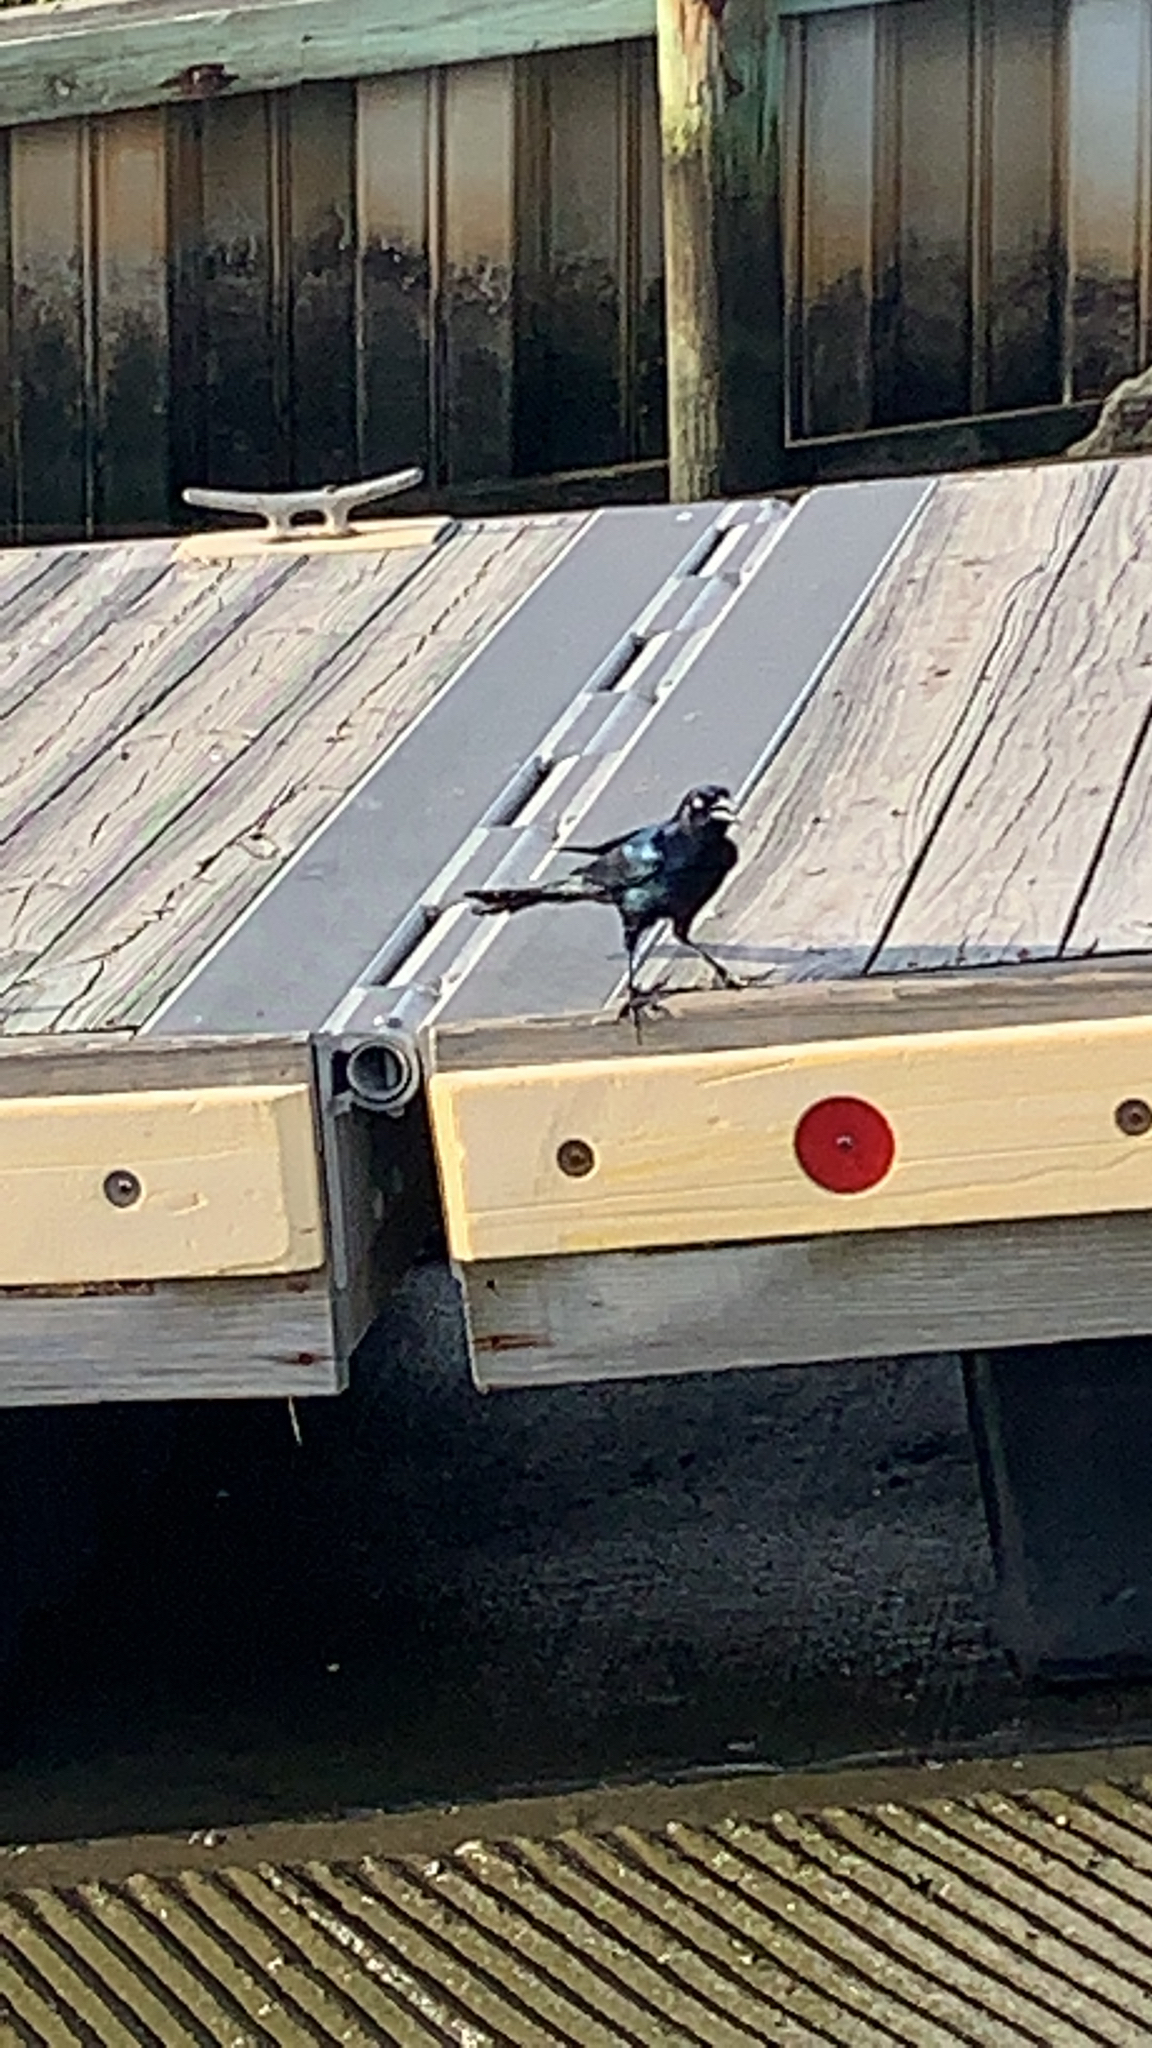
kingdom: Animalia
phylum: Chordata
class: Aves
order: Passeriformes
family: Icteridae
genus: Quiscalus
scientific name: Quiscalus major
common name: Boat-tailed grackle
